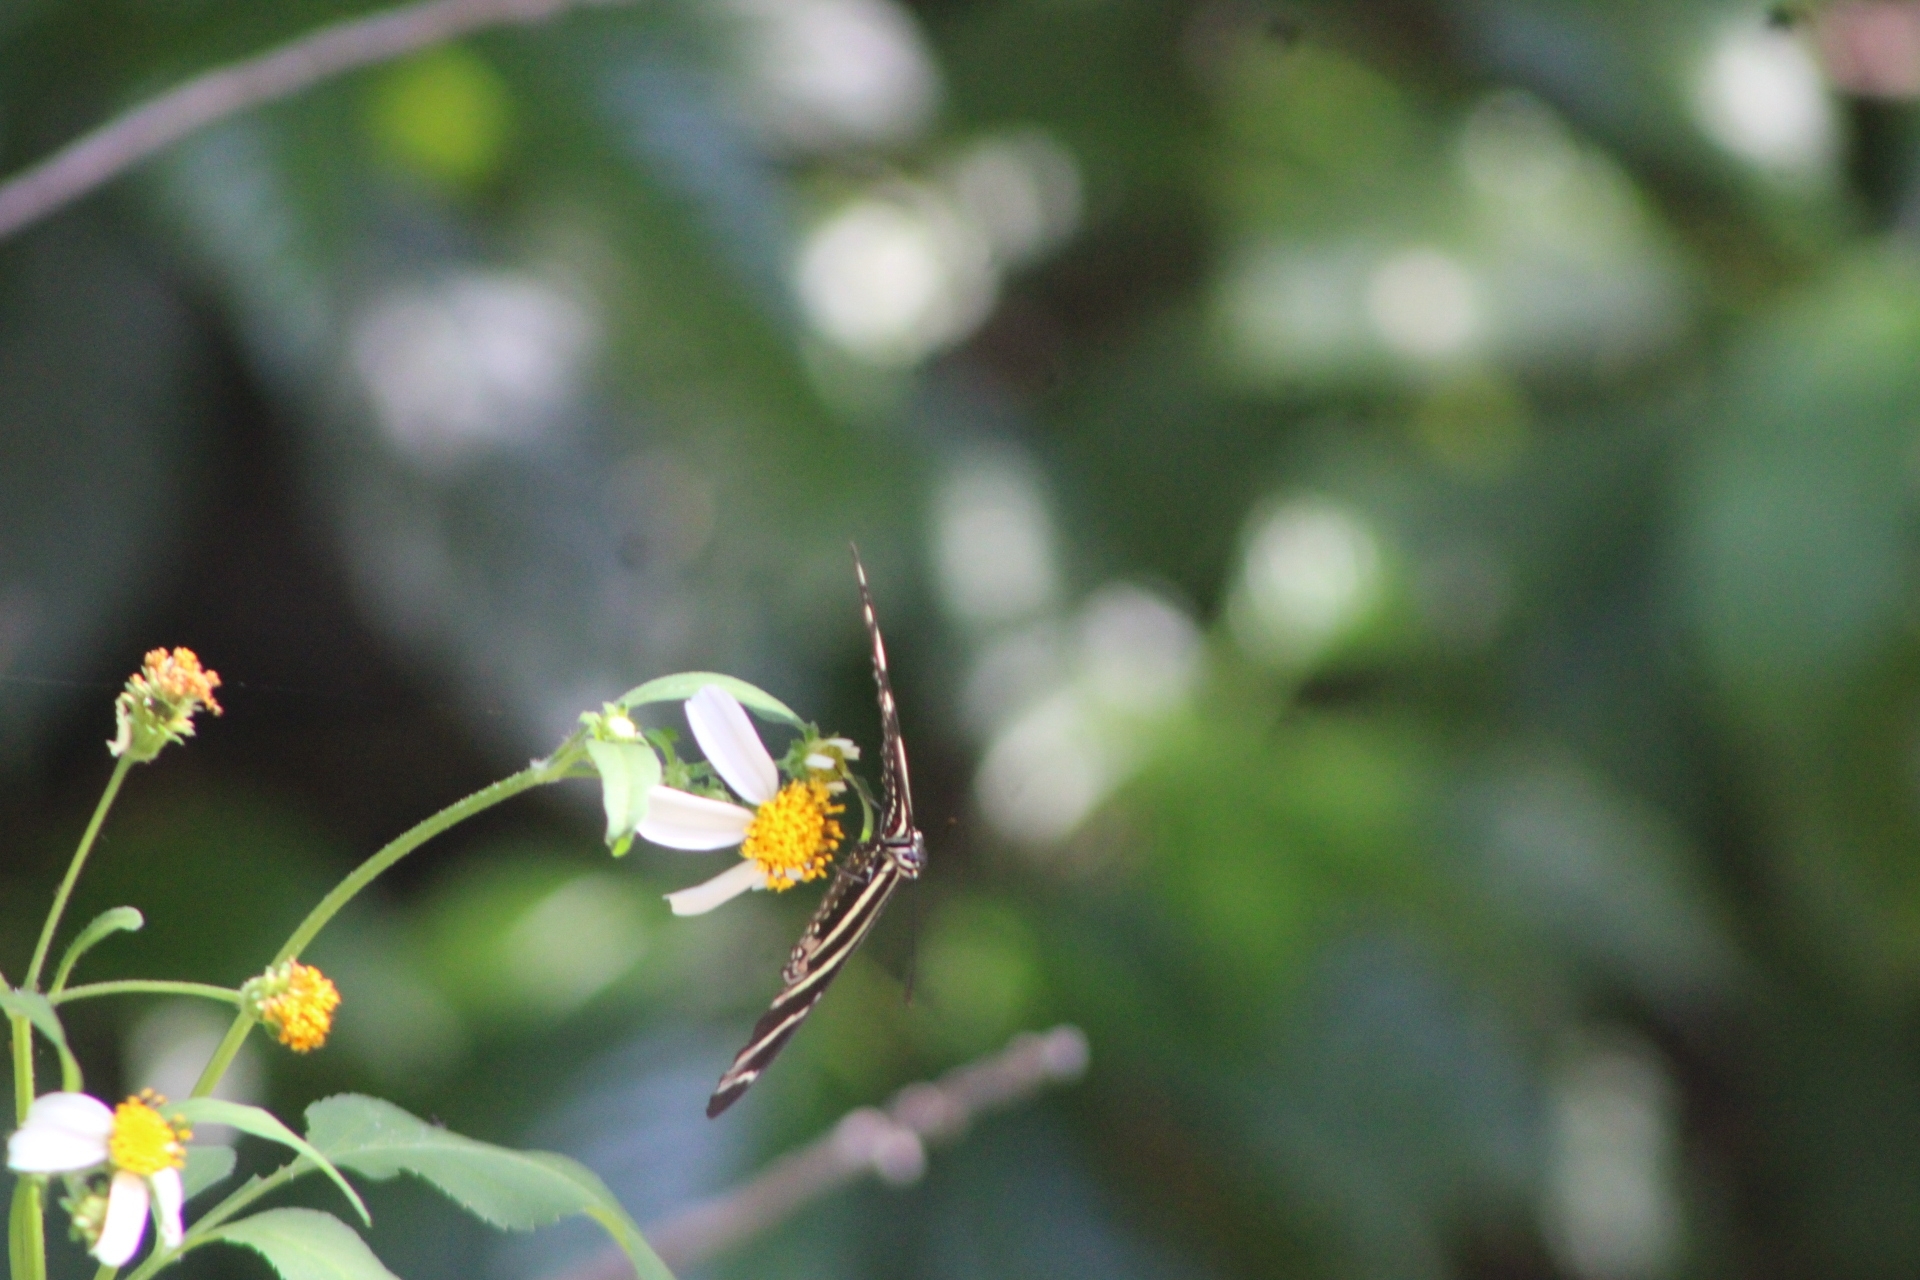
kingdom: Animalia
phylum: Arthropoda
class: Insecta
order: Lepidoptera
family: Nymphalidae
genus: Heliconius
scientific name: Heliconius charithonia
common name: Zebra long wing
